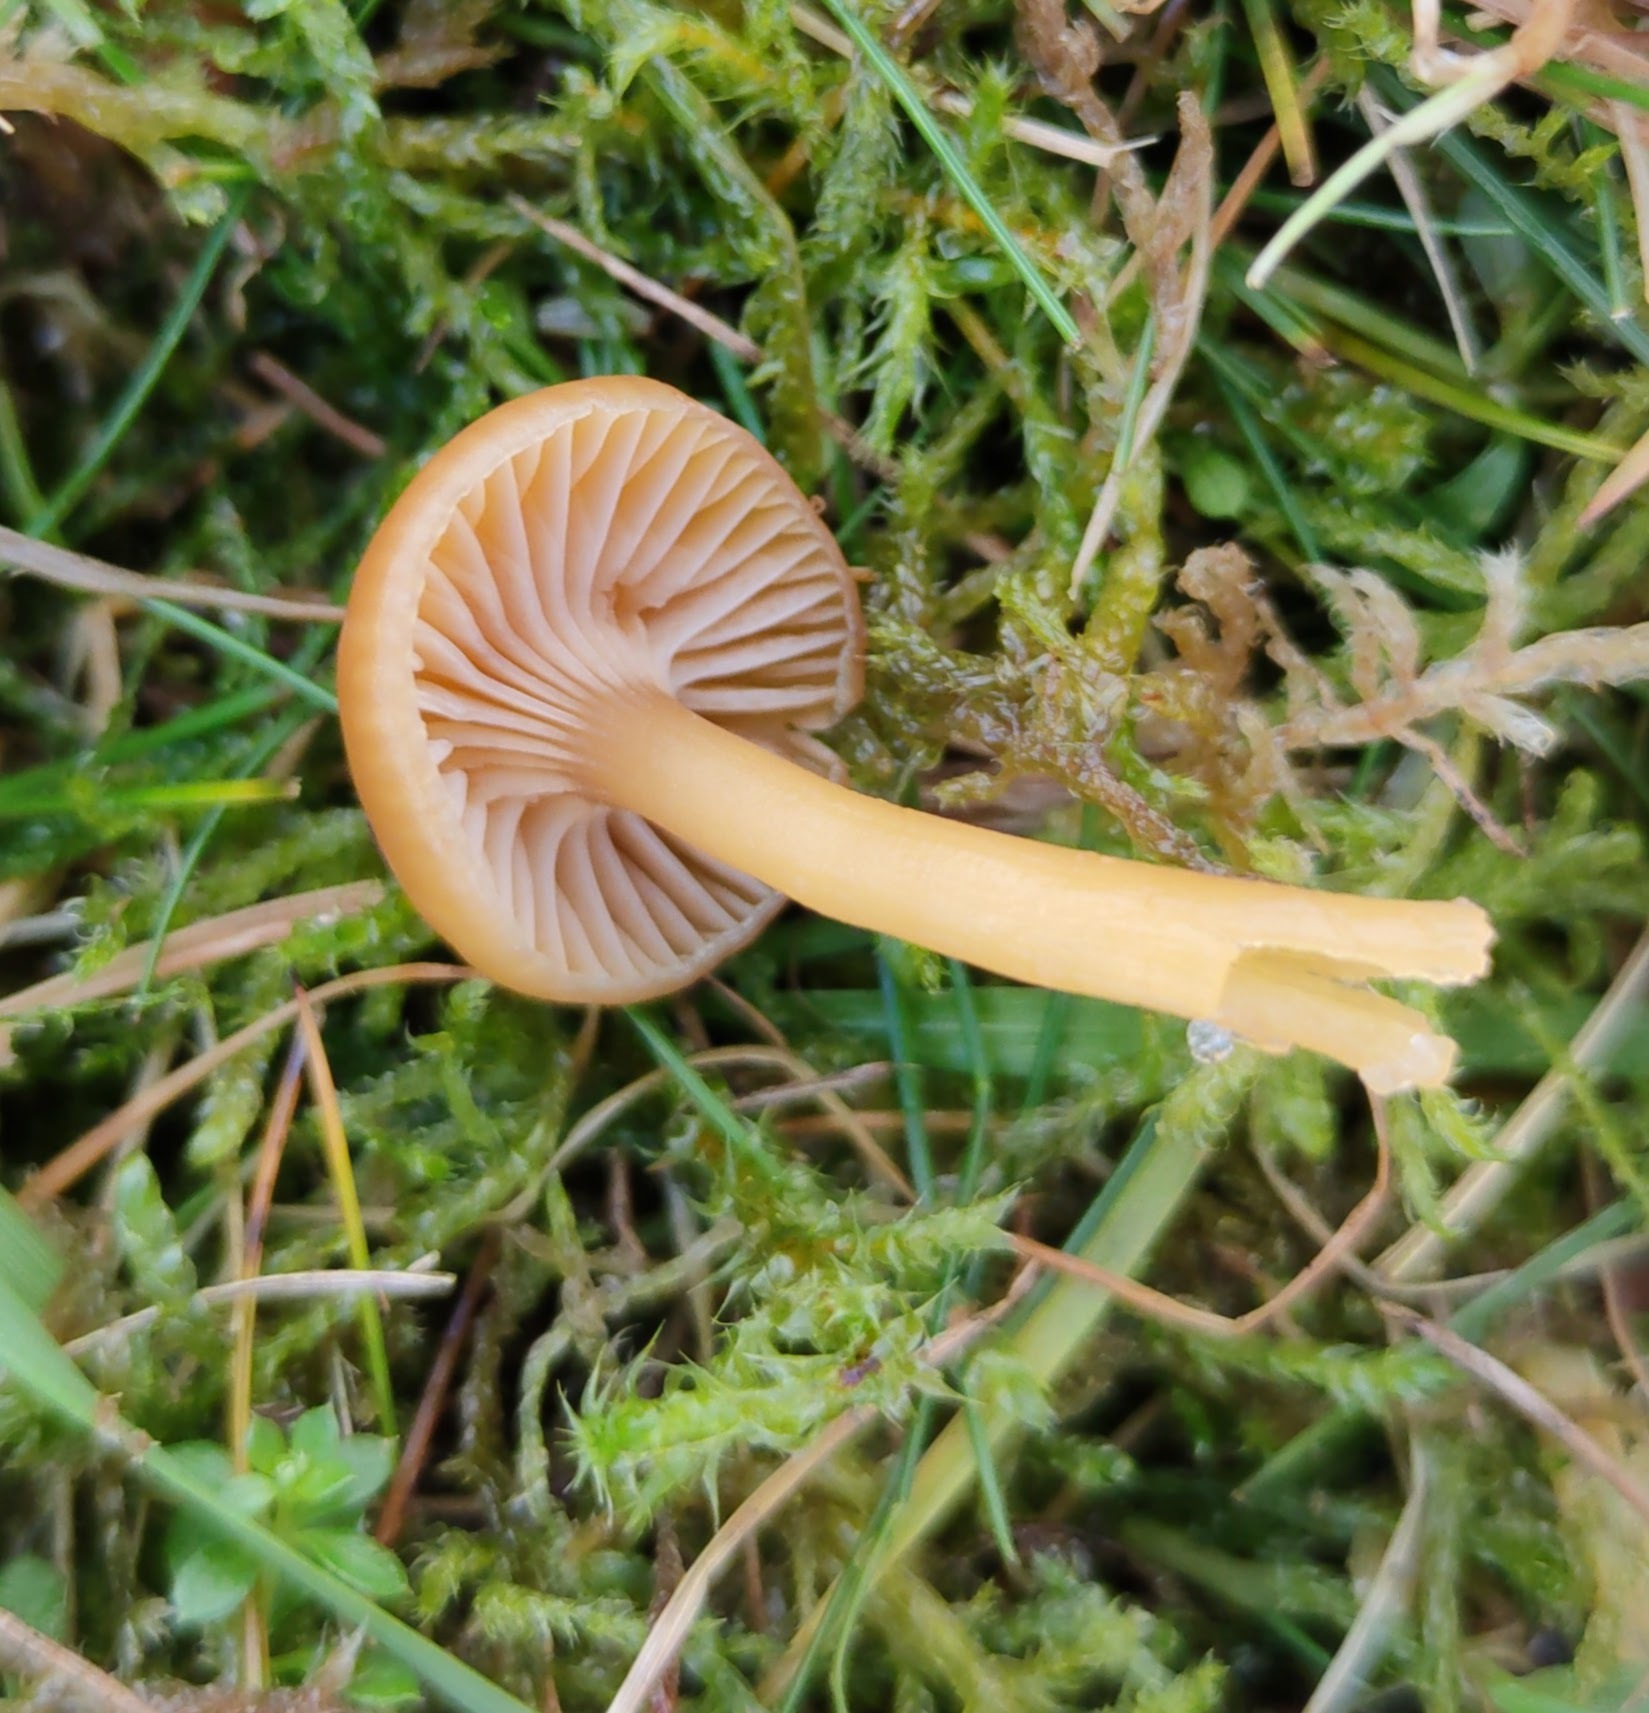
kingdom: Fungi
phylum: Basidiomycota
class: Agaricomycetes
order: Agaricales
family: Hygrophoraceae
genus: Gliophorus
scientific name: Gliophorus laetus
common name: Heath waxcap
